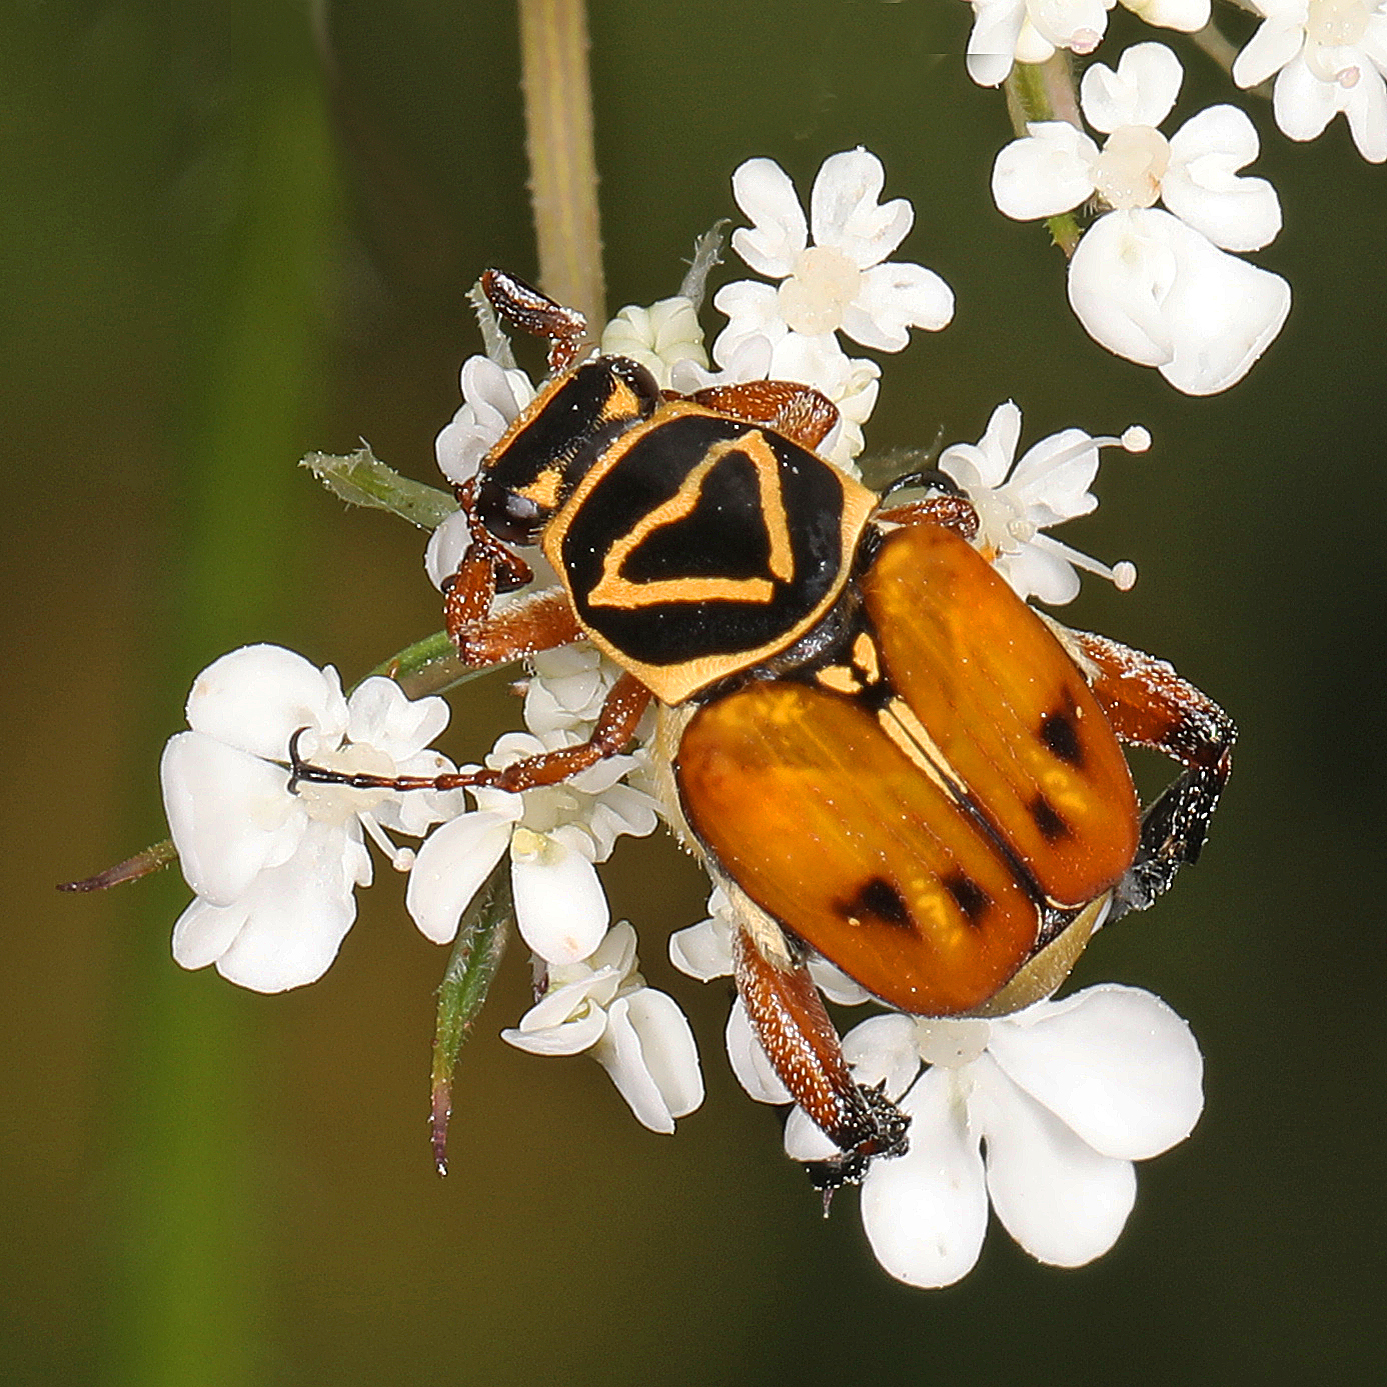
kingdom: Animalia
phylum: Arthropoda
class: Insecta
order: Coleoptera
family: Scarabaeidae
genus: Trigonopeltastes
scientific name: Trigonopeltastes delta
